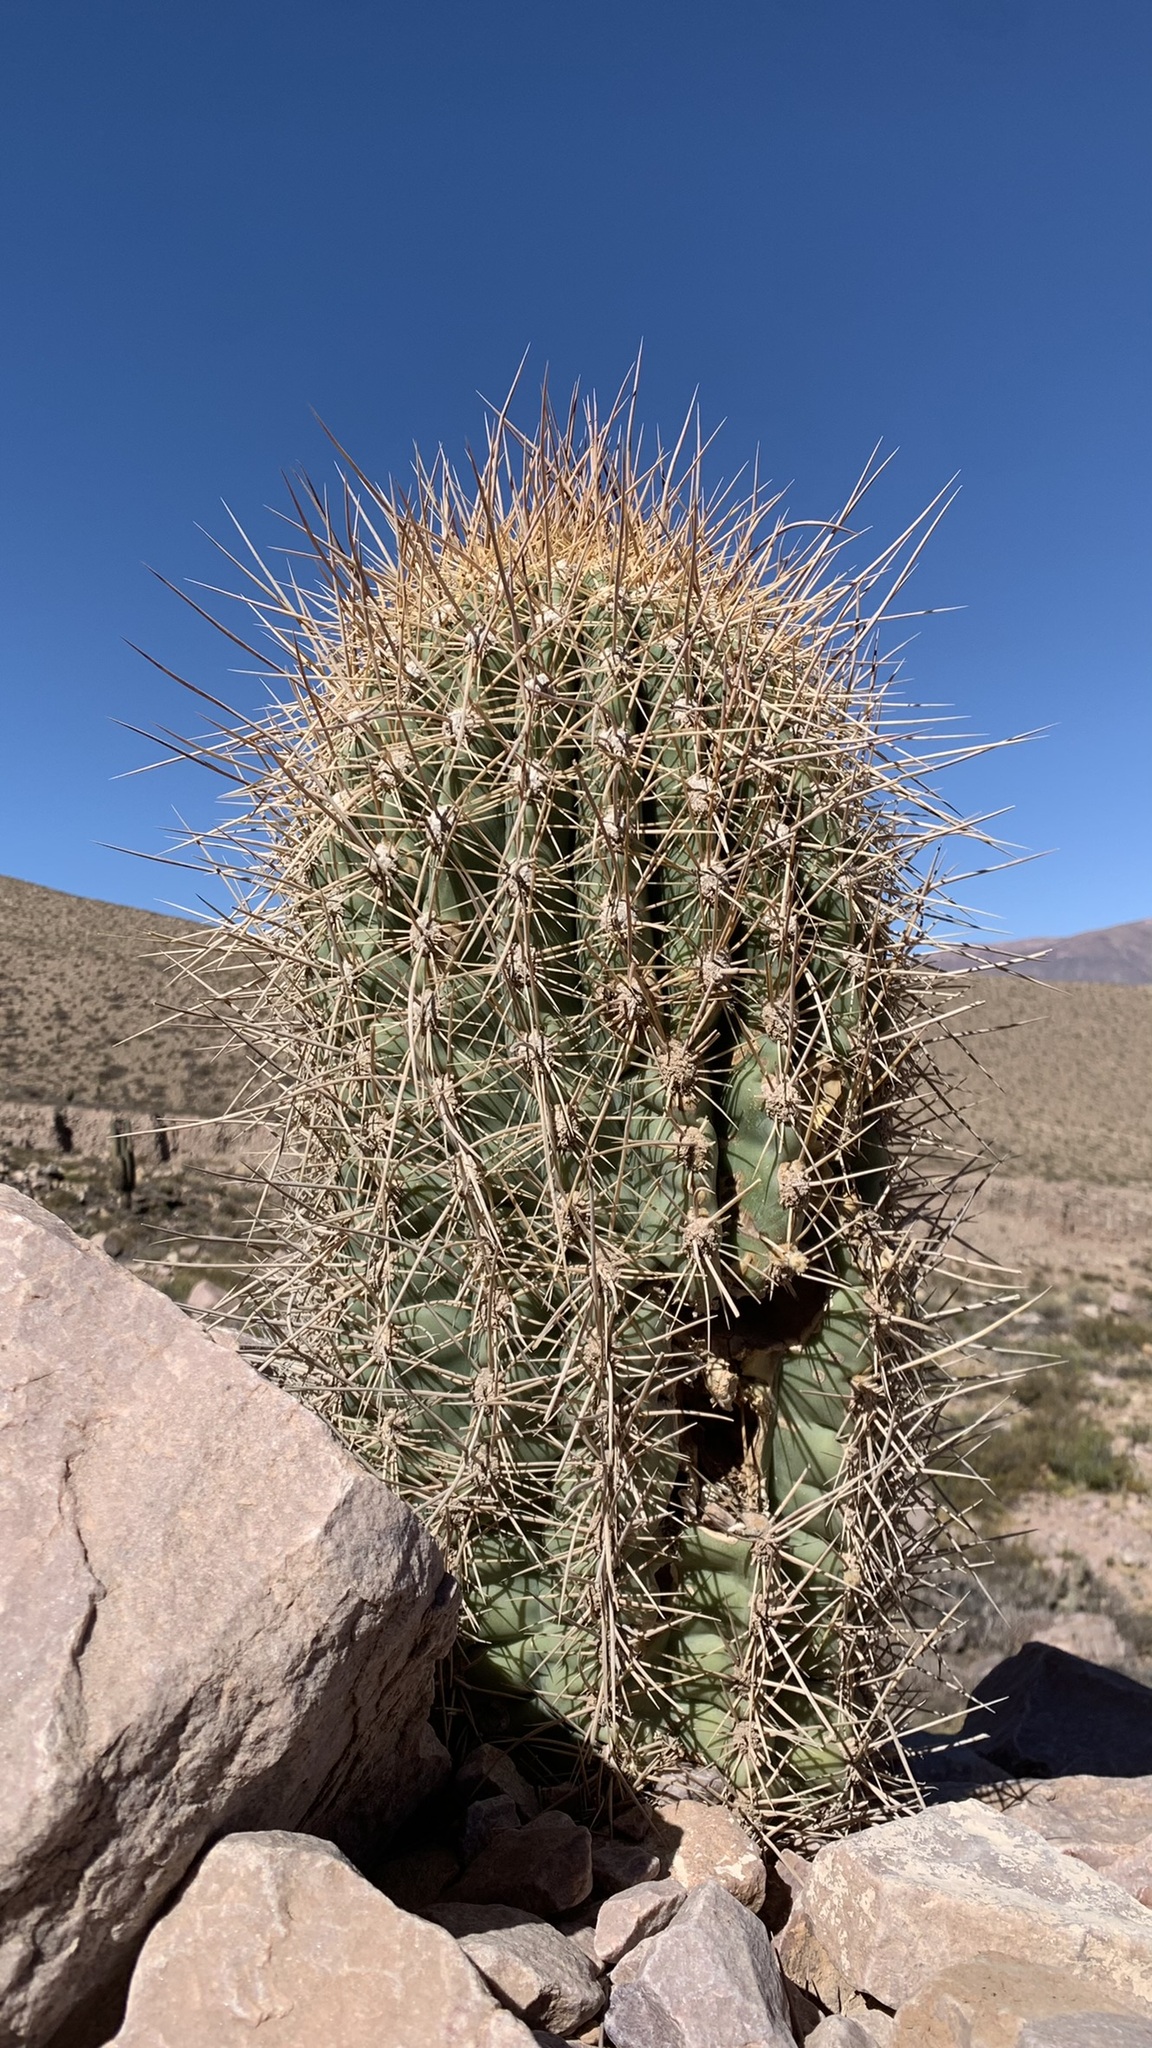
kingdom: Plantae
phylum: Tracheophyta
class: Magnoliopsida
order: Caryophyllales
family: Cactaceae
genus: Leucostele
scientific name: Leucostele atacamensis
